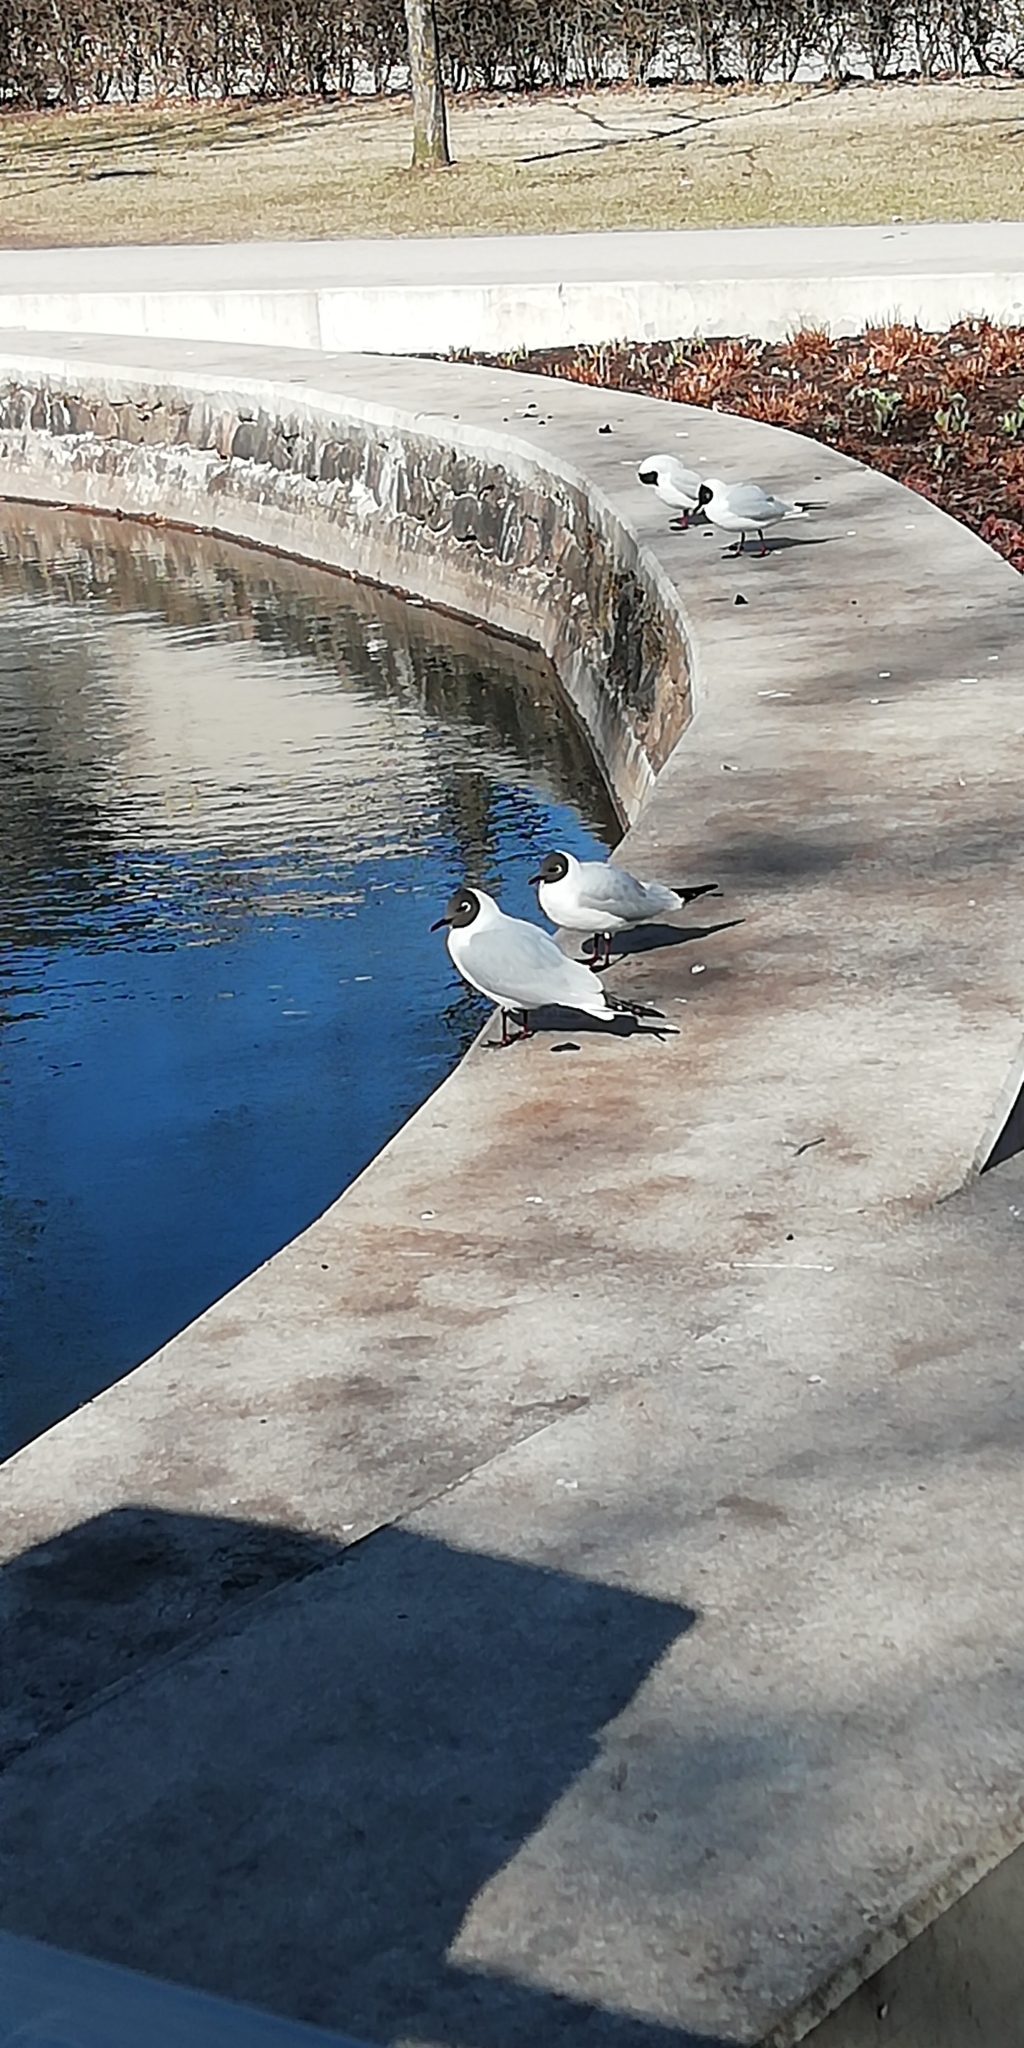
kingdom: Animalia
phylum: Chordata
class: Aves
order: Charadriiformes
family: Laridae
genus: Chroicocephalus
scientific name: Chroicocephalus ridibundus
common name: Black-headed gull
